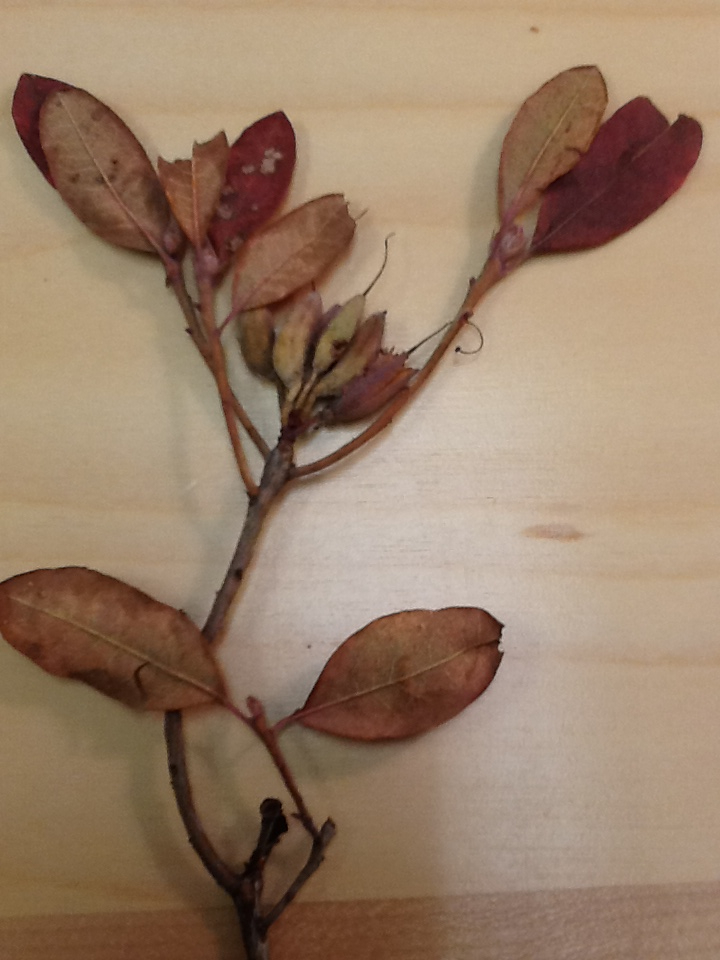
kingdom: Plantae
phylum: Tracheophyta
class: Magnoliopsida
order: Ericales
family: Ericaceae
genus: Rhododendron
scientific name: Rhododendron canadense
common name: Rhodora
